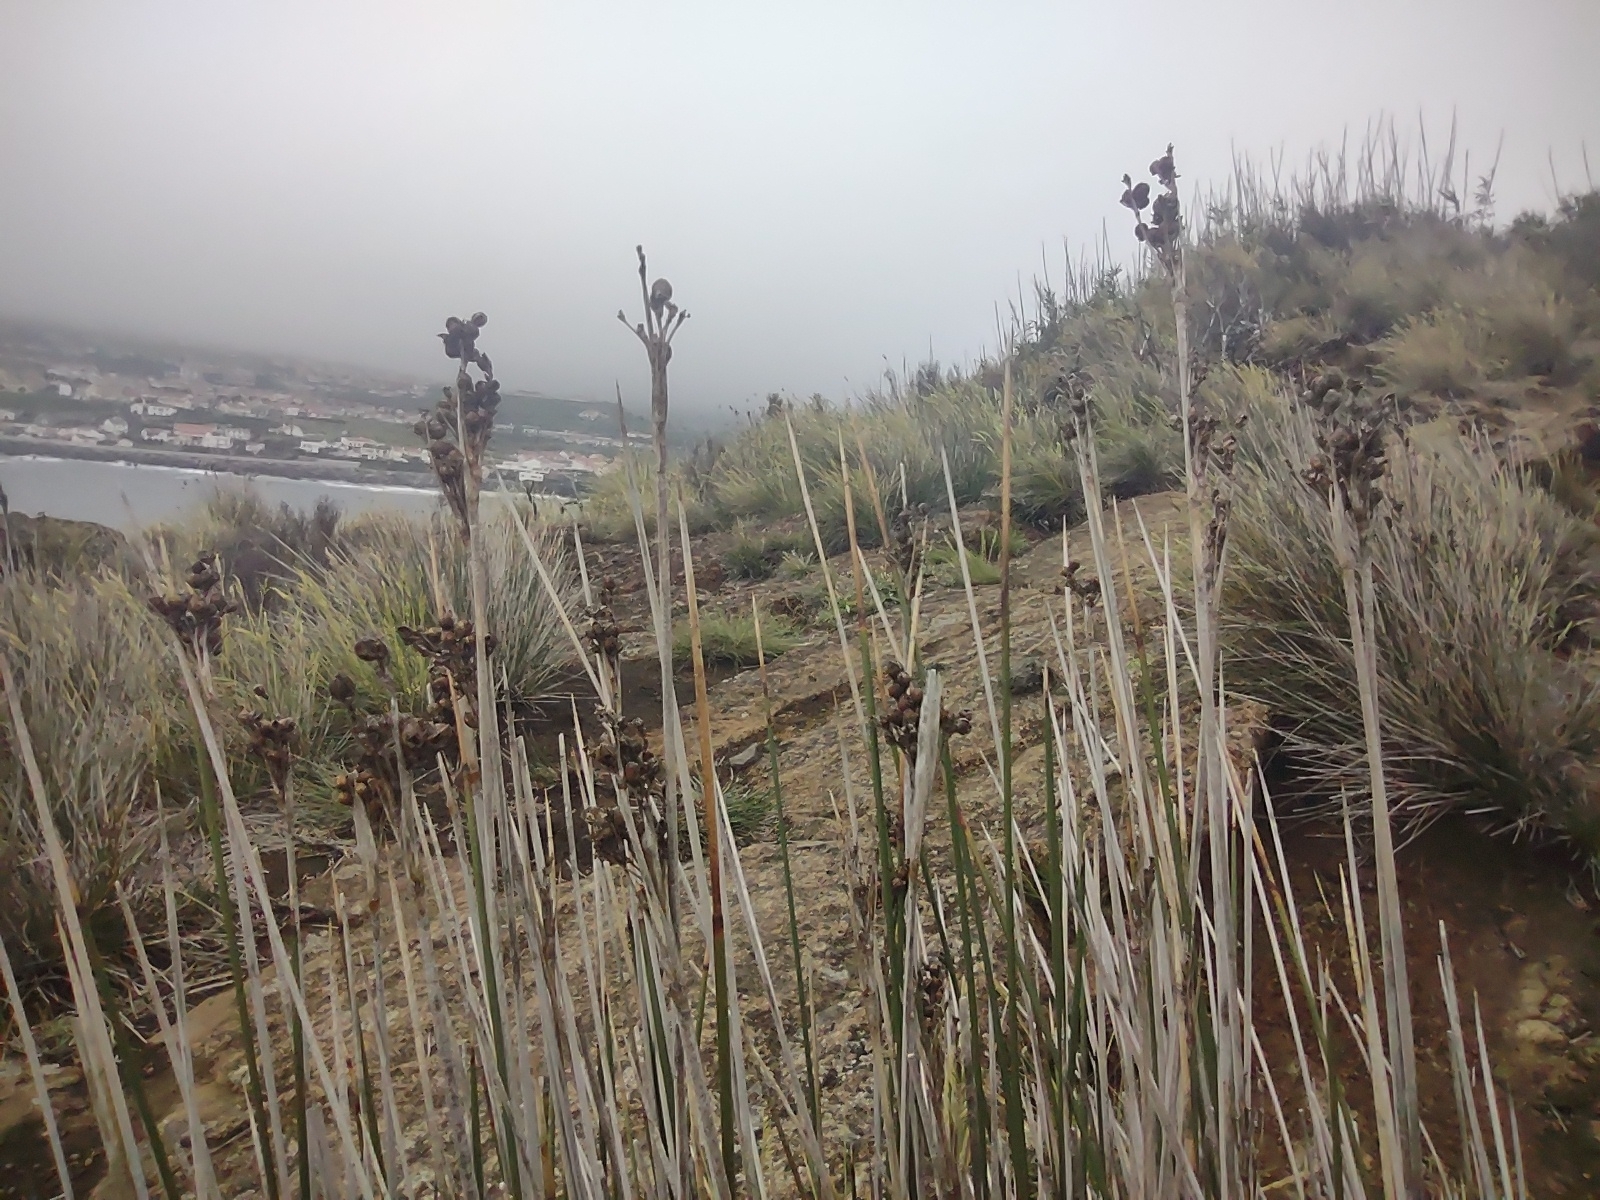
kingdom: Plantae
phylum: Tracheophyta
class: Liliopsida
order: Poales
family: Juncaceae
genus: Juncus
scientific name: Juncus acutus
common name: Sharp rush
